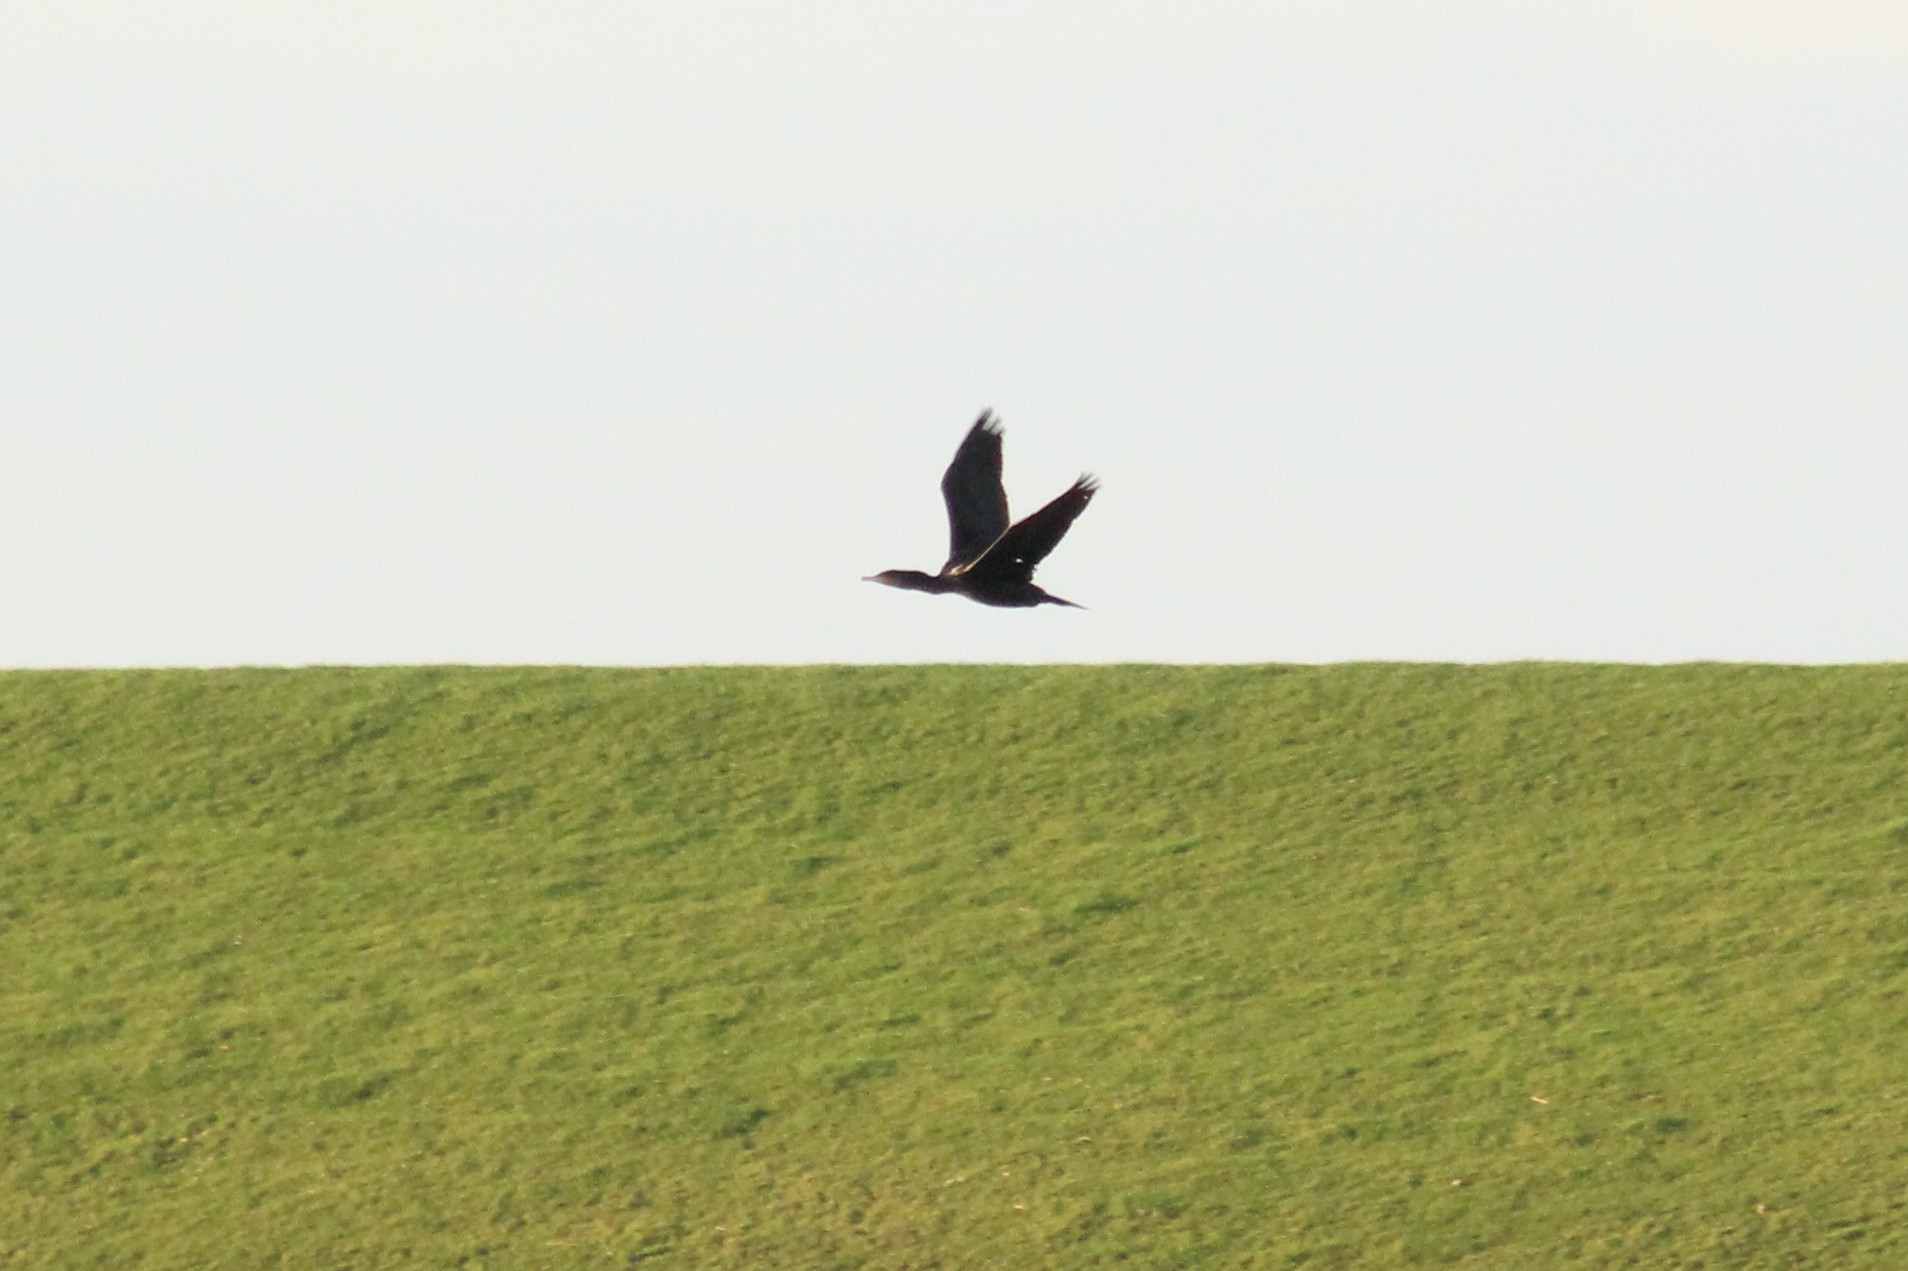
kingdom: Animalia
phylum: Chordata
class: Aves
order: Suliformes
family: Phalacrocoracidae
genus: Phalacrocorax
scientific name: Phalacrocorax carbo
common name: Great cormorant
